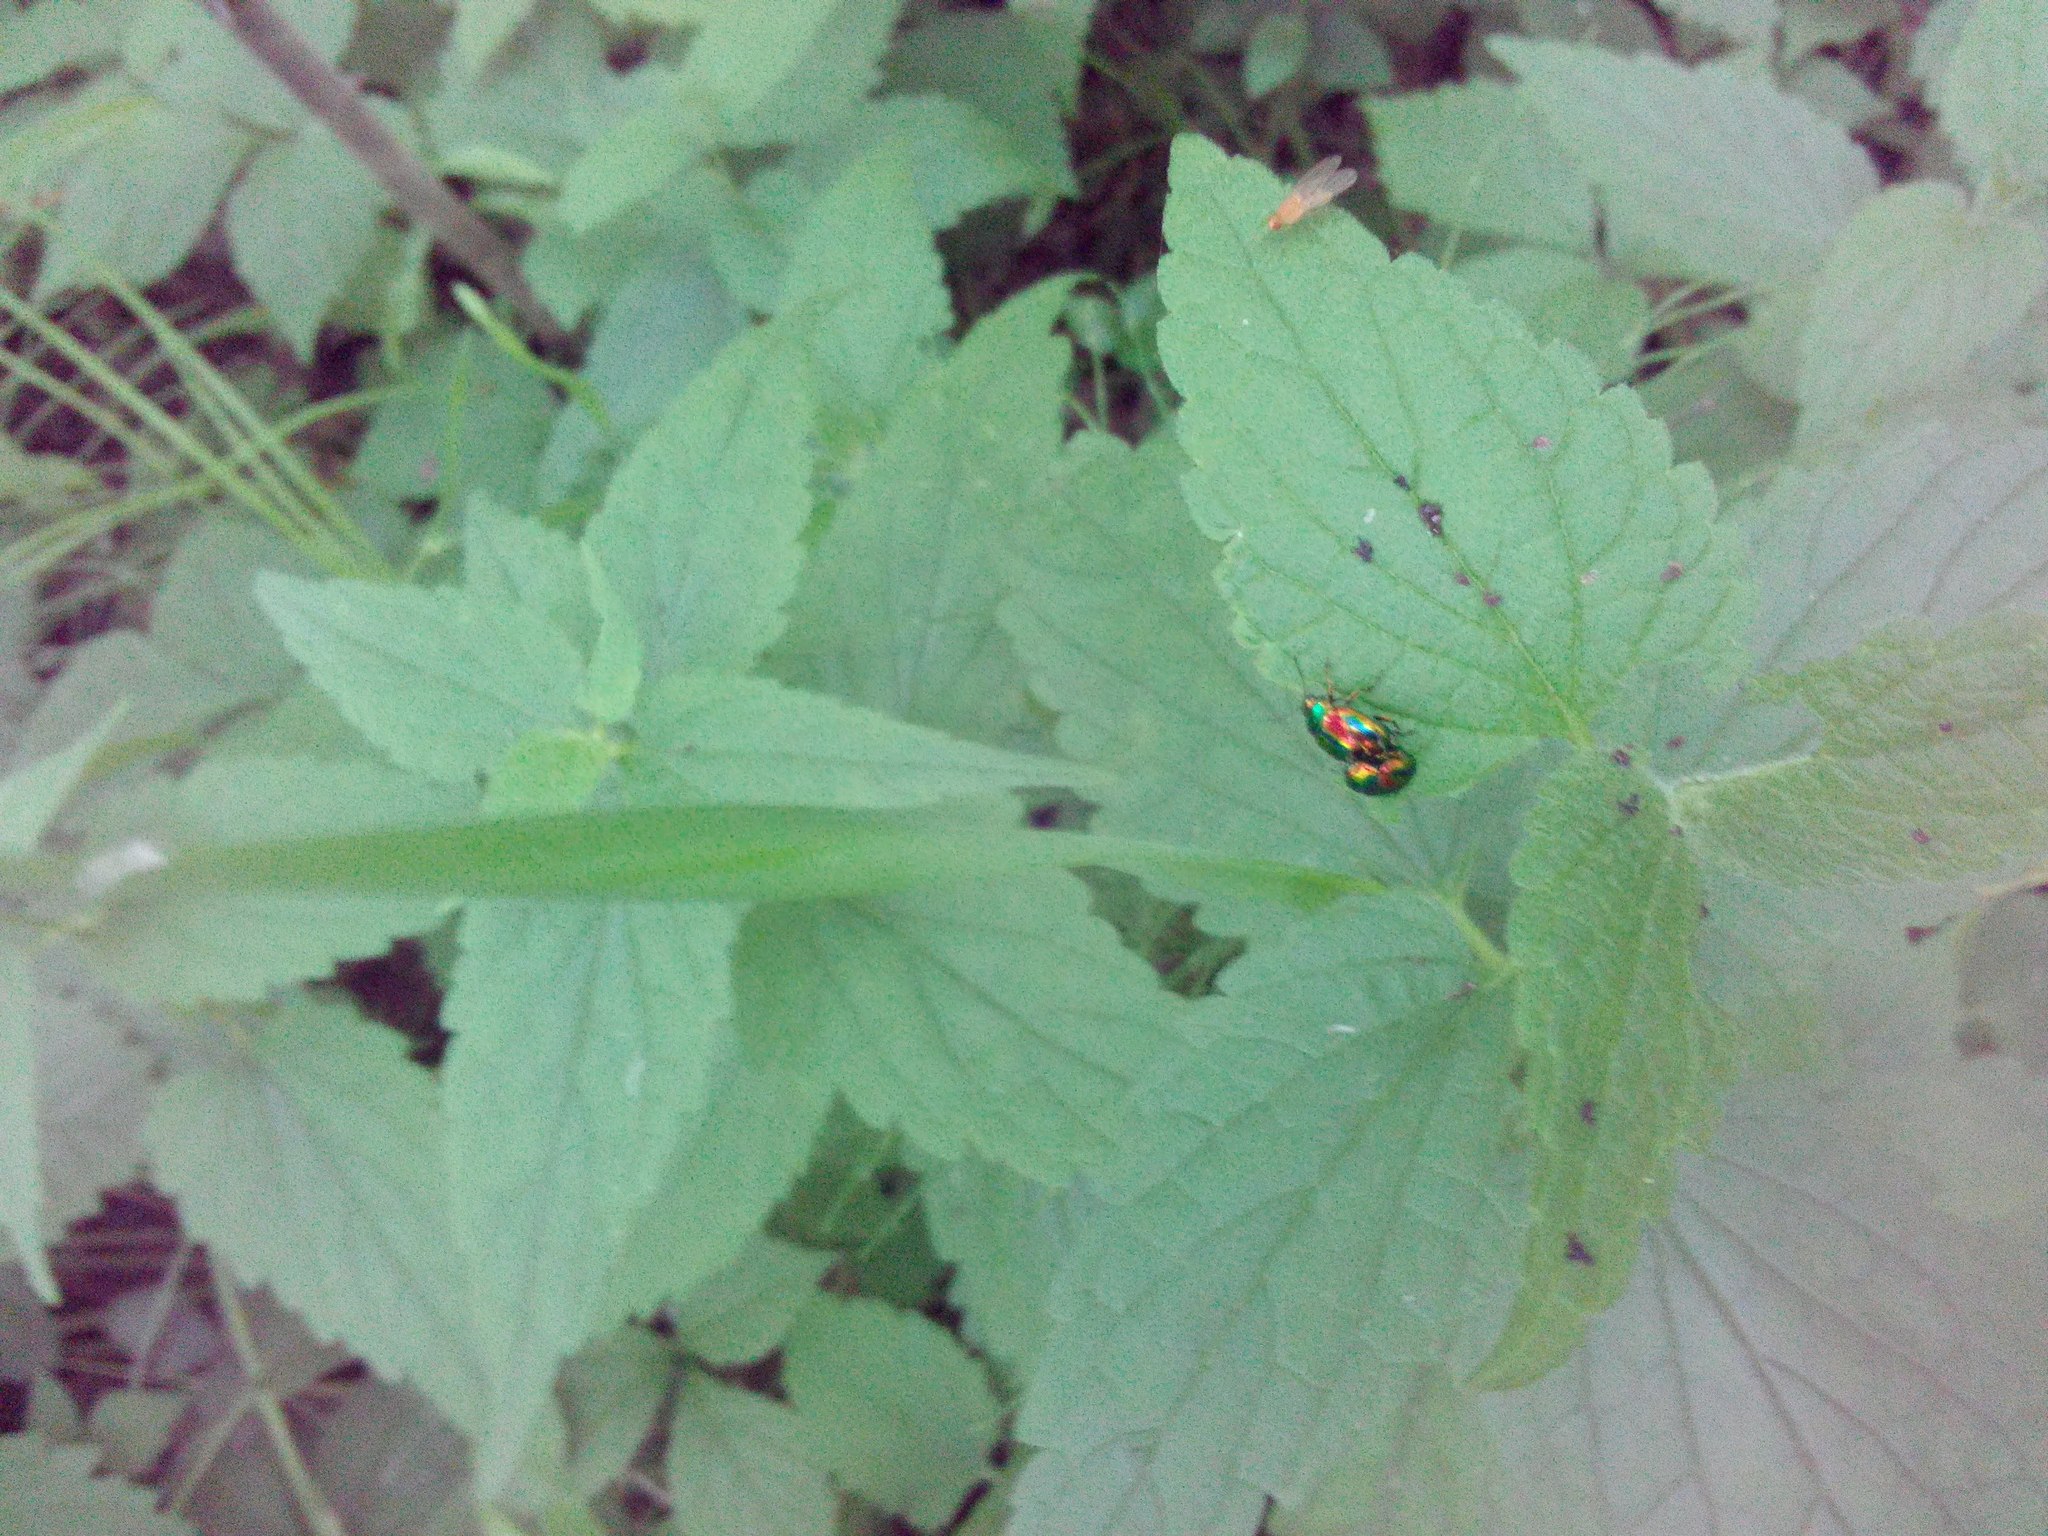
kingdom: Animalia
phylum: Arthropoda
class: Insecta
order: Coleoptera
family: Chrysomelidae
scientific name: Chrysomelidae
